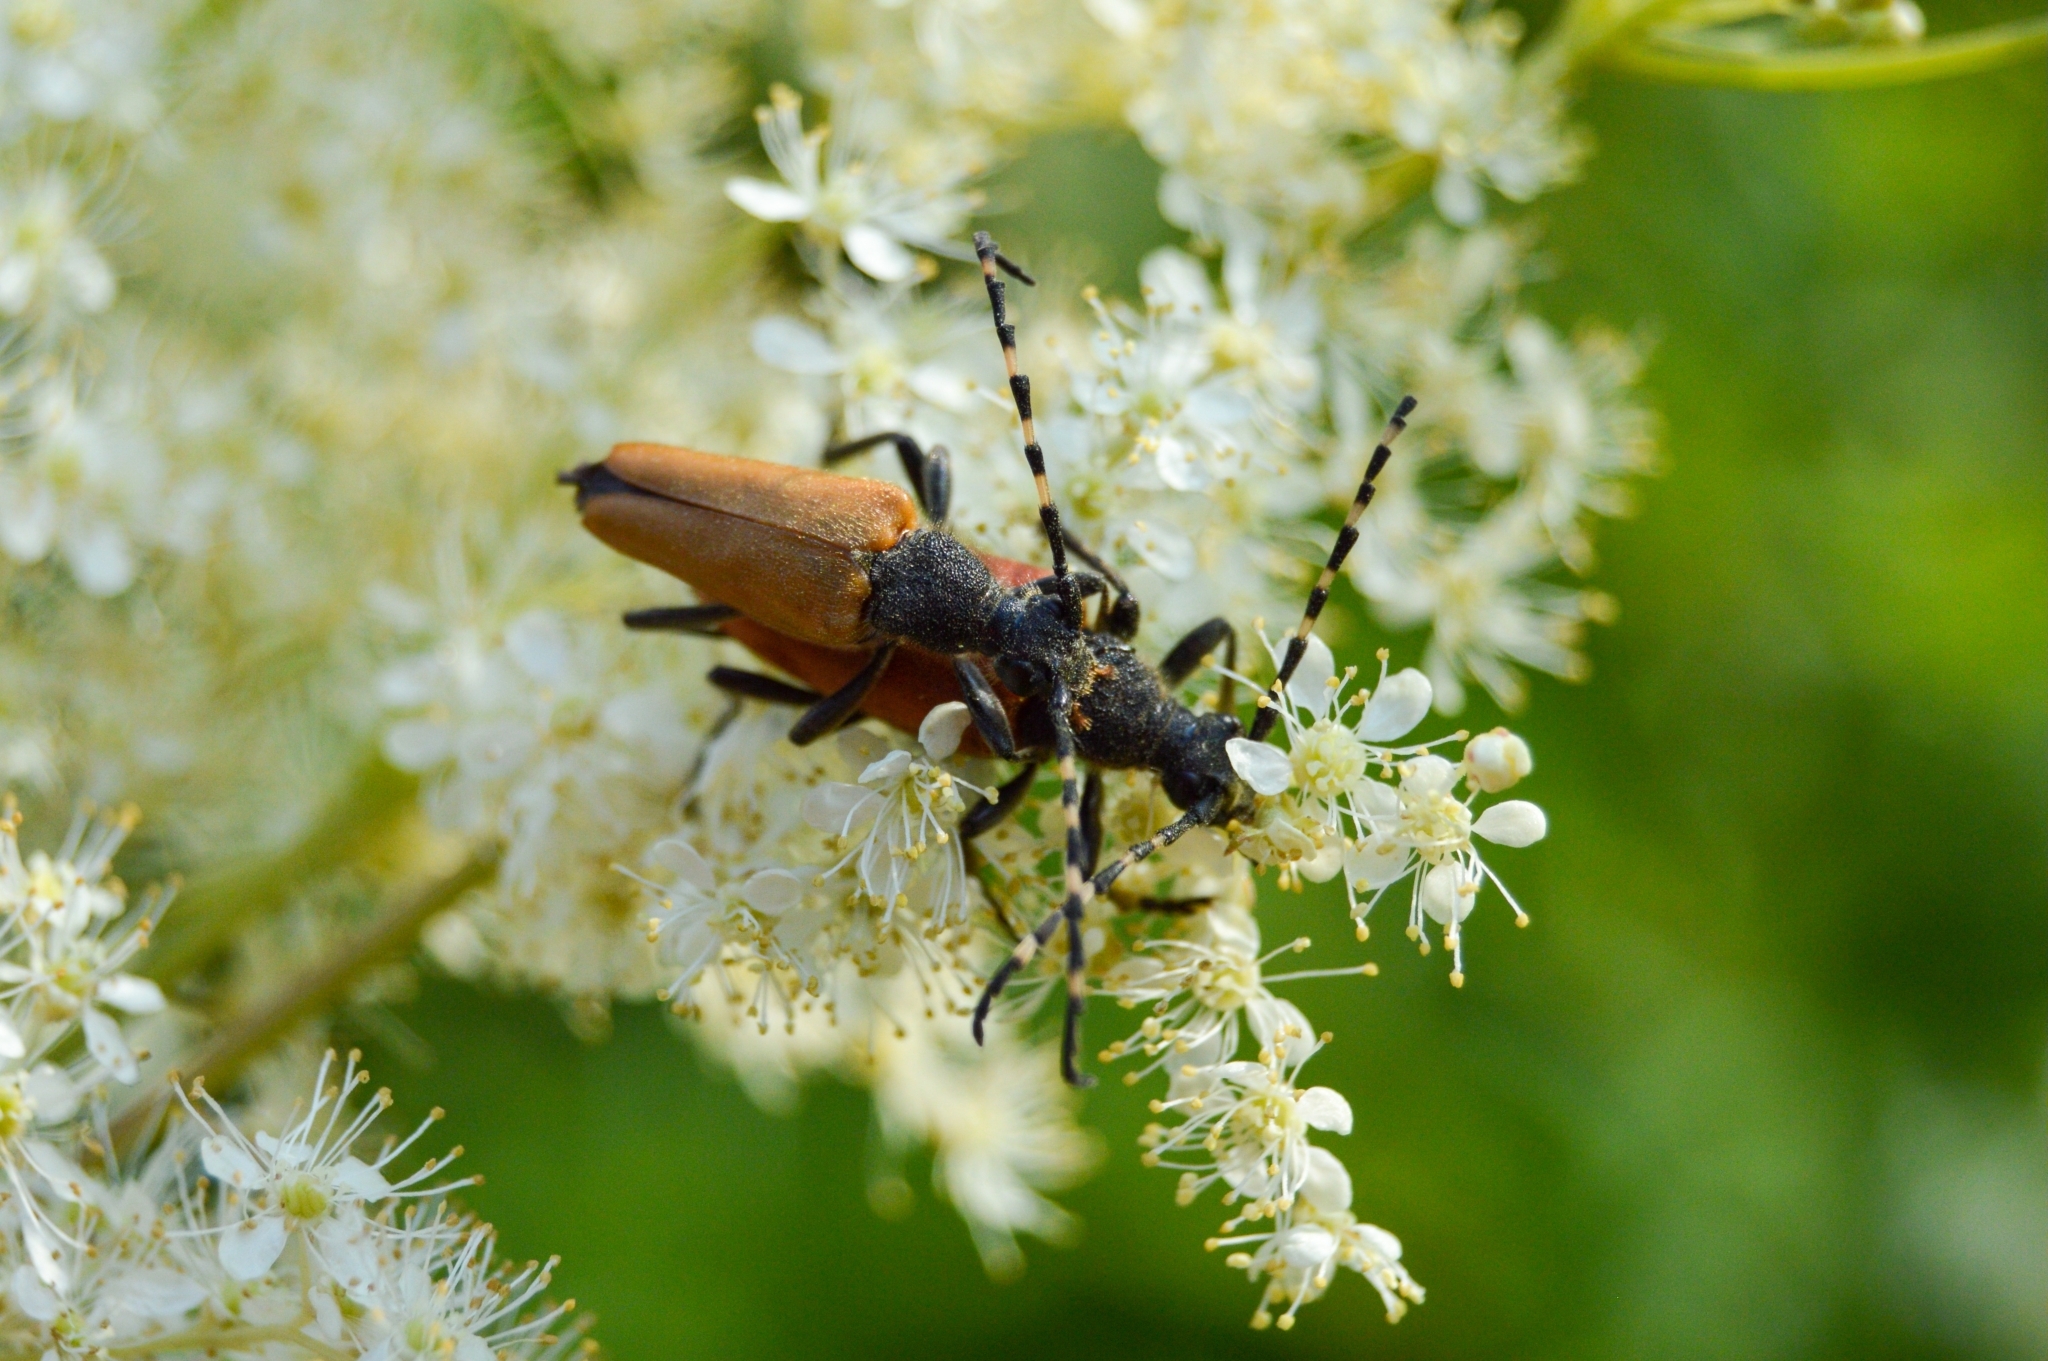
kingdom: Animalia
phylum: Arthropoda
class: Insecta
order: Coleoptera
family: Cerambycidae
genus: Stictoleptura
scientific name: Stictoleptura variicornis
